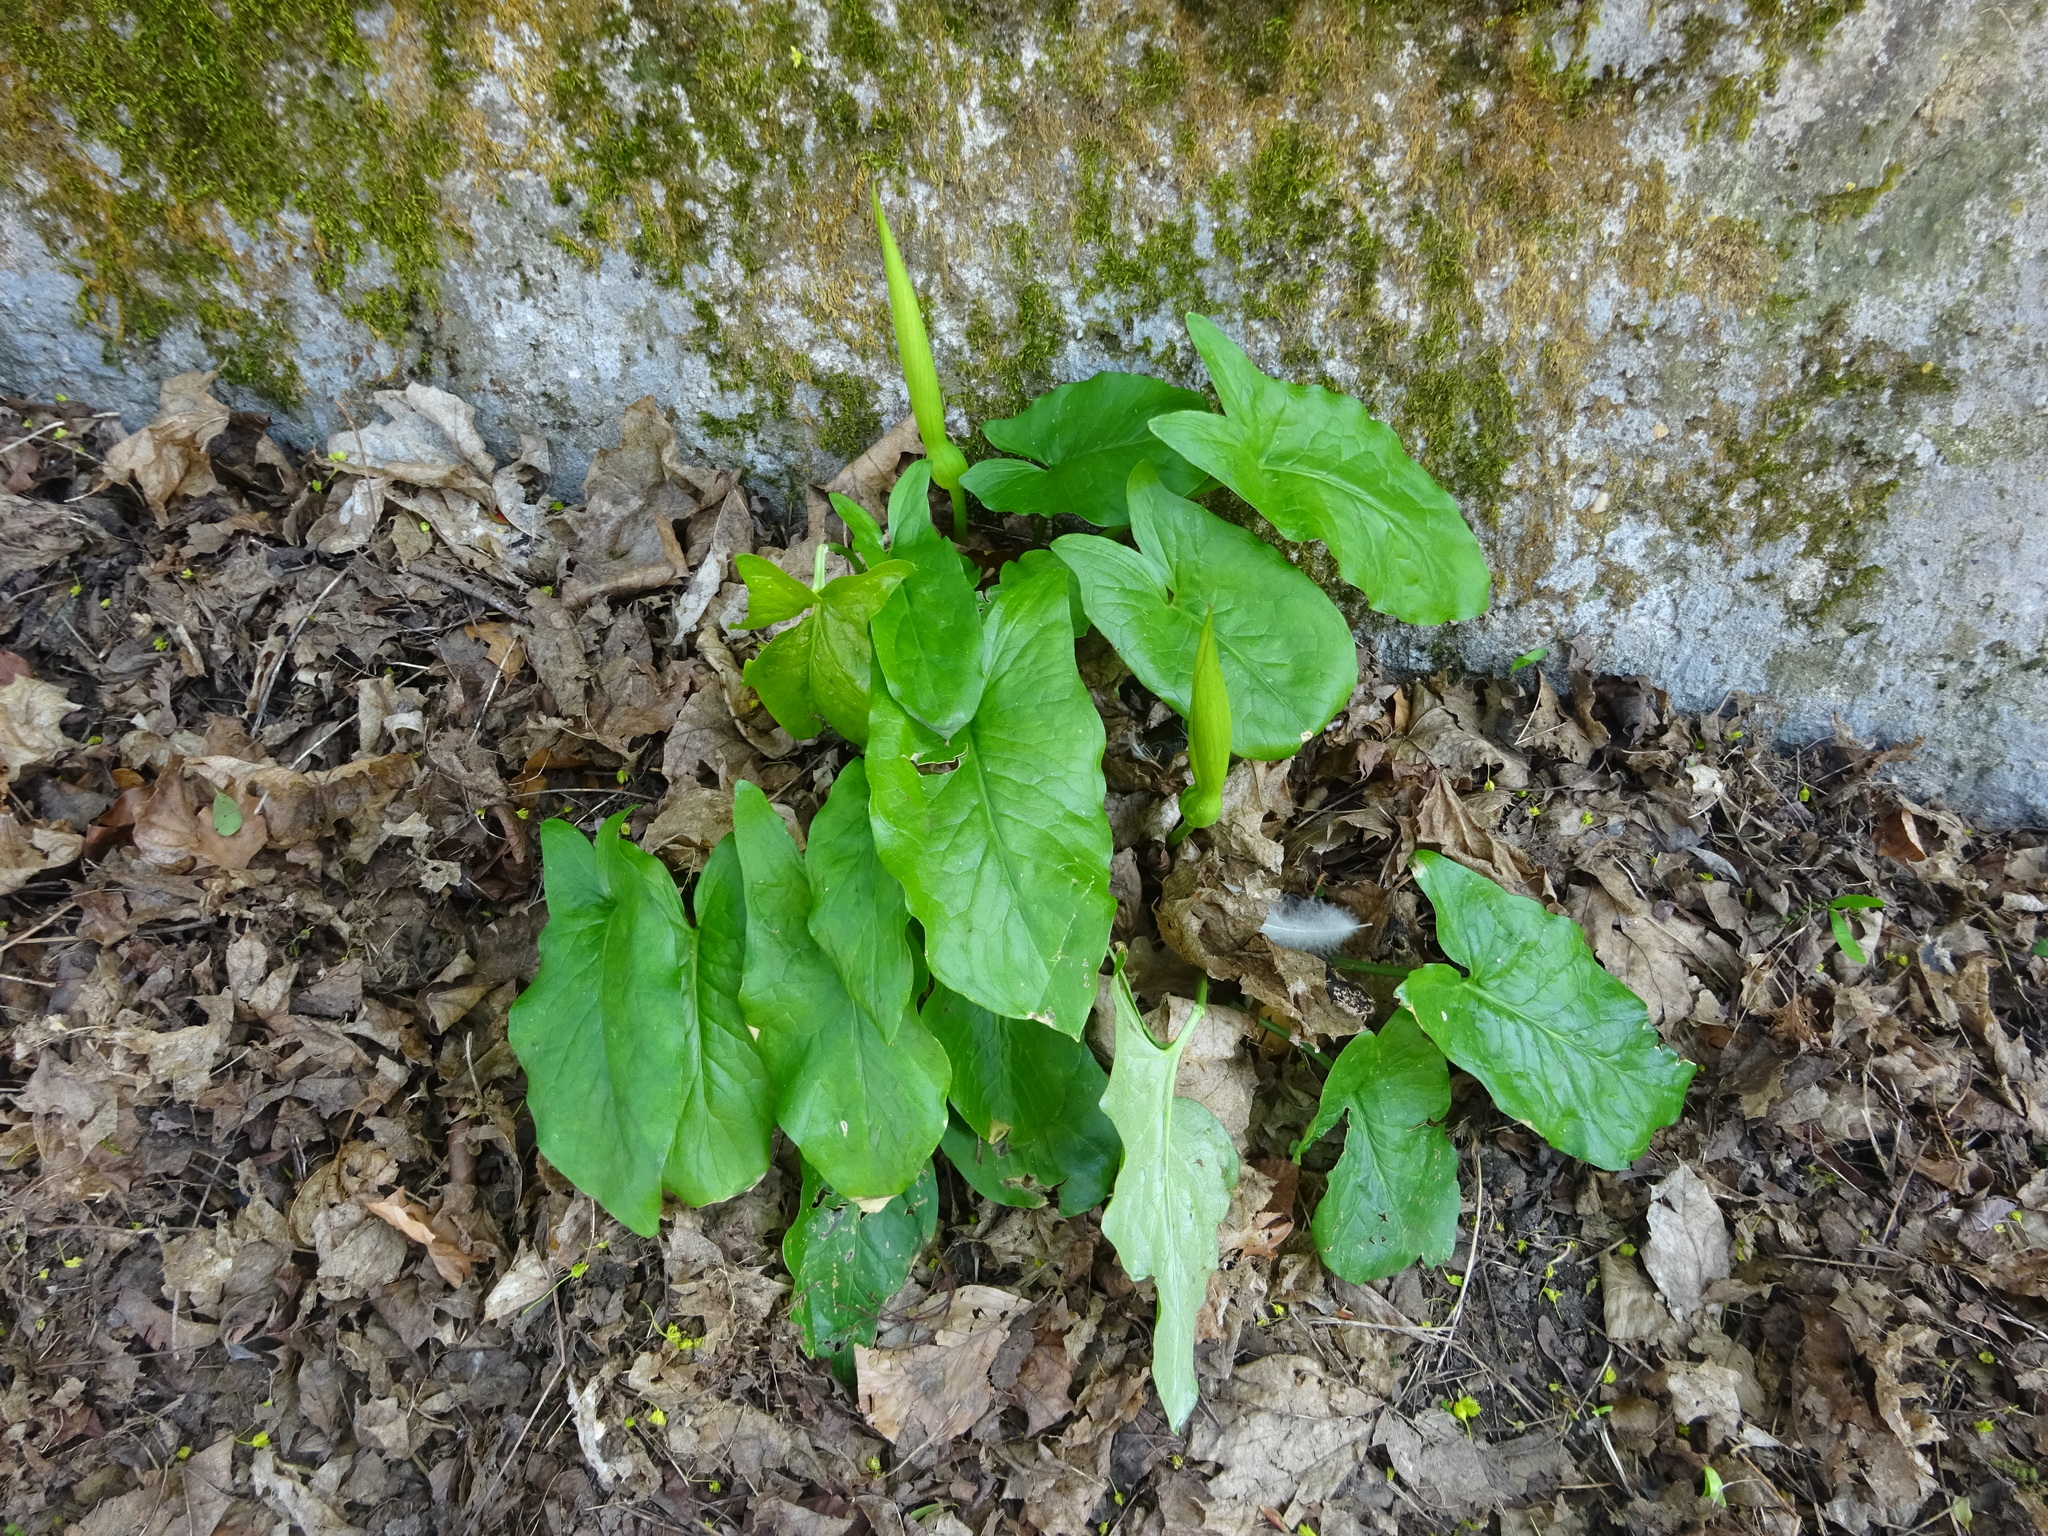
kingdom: Plantae
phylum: Tracheophyta
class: Liliopsida
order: Alismatales
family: Araceae
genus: Arum
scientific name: Arum maculatum
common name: Lords-and-ladies
